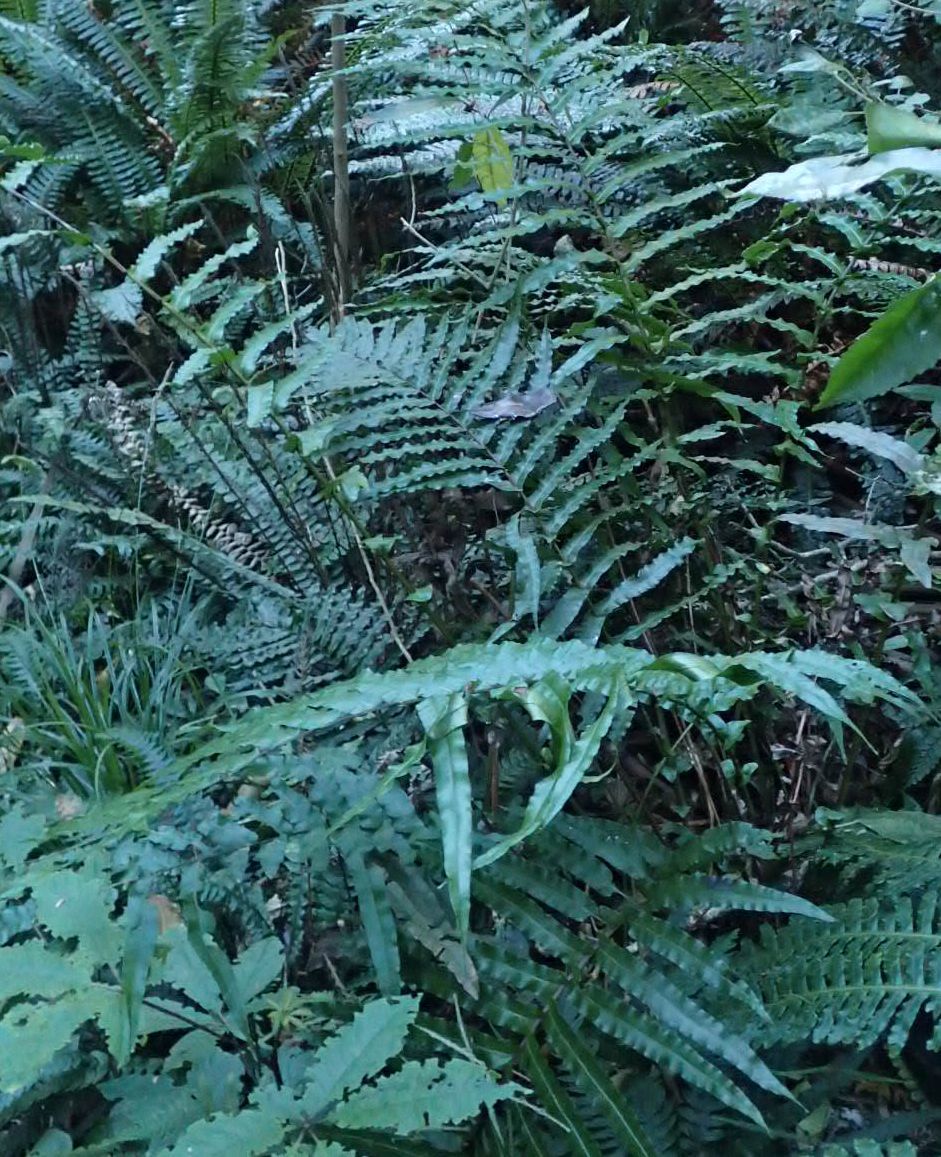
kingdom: Plantae
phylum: Tracheophyta
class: Polypodiopsida
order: Polypodiales
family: Blechnaceae
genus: Parablechnum
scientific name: Parablechnum novae-zelandiae
